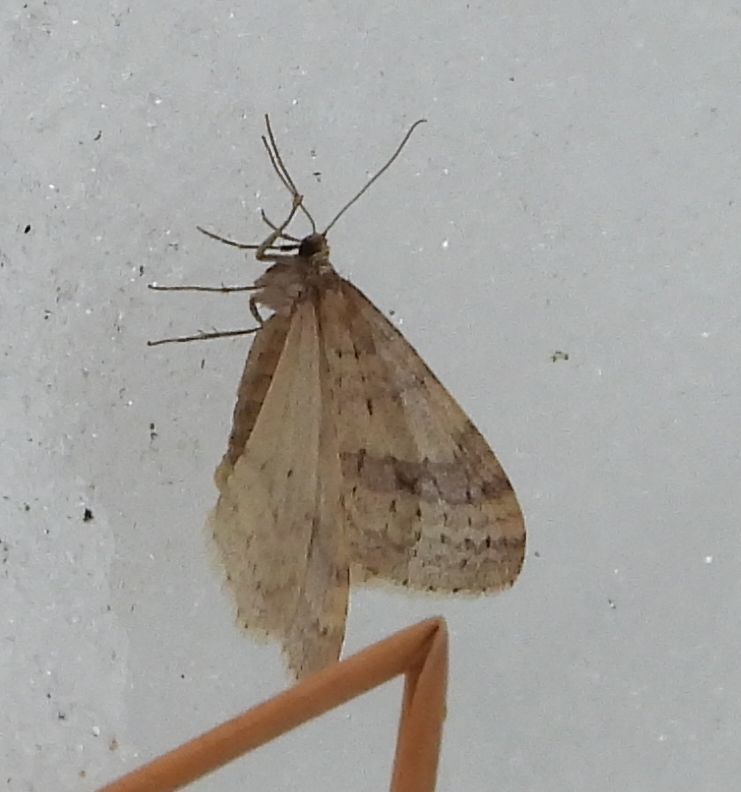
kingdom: Animalia
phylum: Arthropoda
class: Insecta
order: Lepidoptera
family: Geometridae
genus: Operophtera
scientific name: Operophtera bruceata
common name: Bruce spanworm
